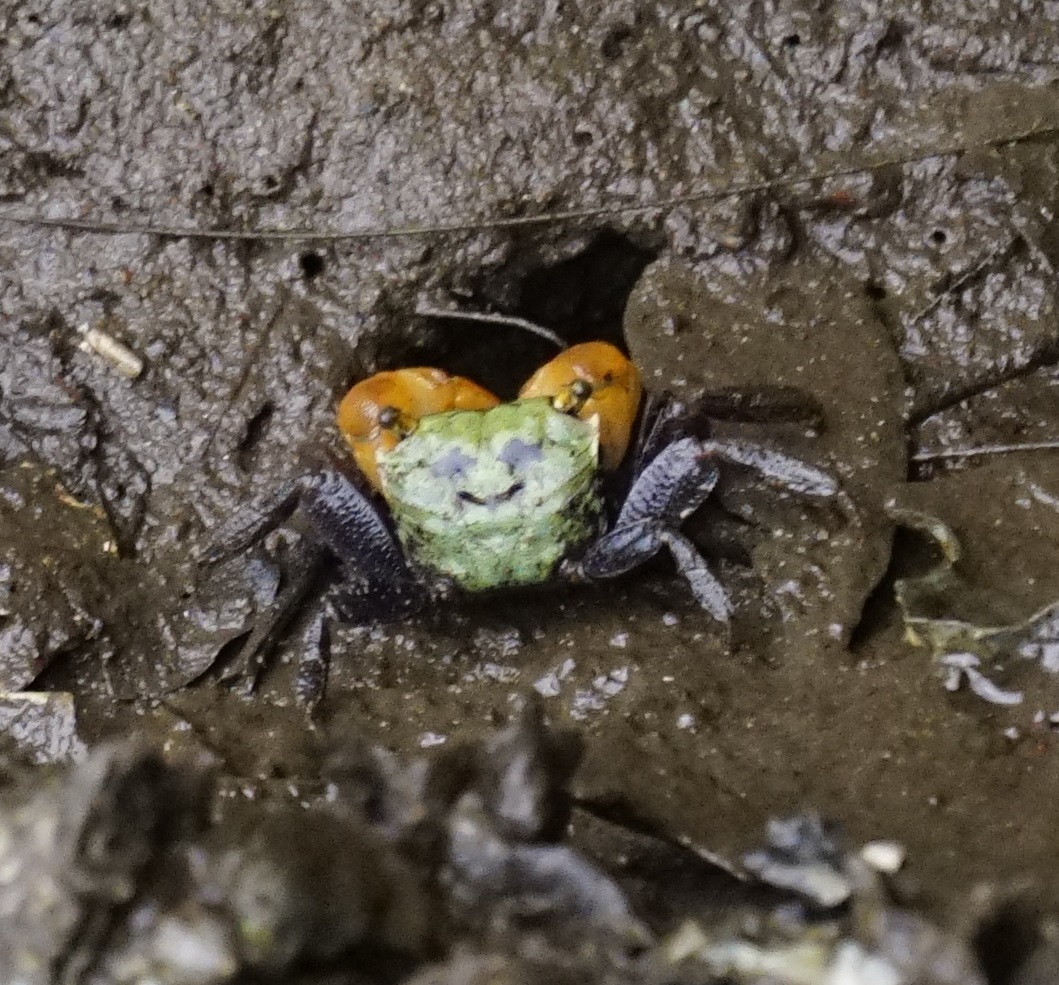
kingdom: Animalia
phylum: Arthropoda
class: Malacostraca
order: Decapoda
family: Sesarmidae
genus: Parasesarma
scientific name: Parasesarma erythodactylum
